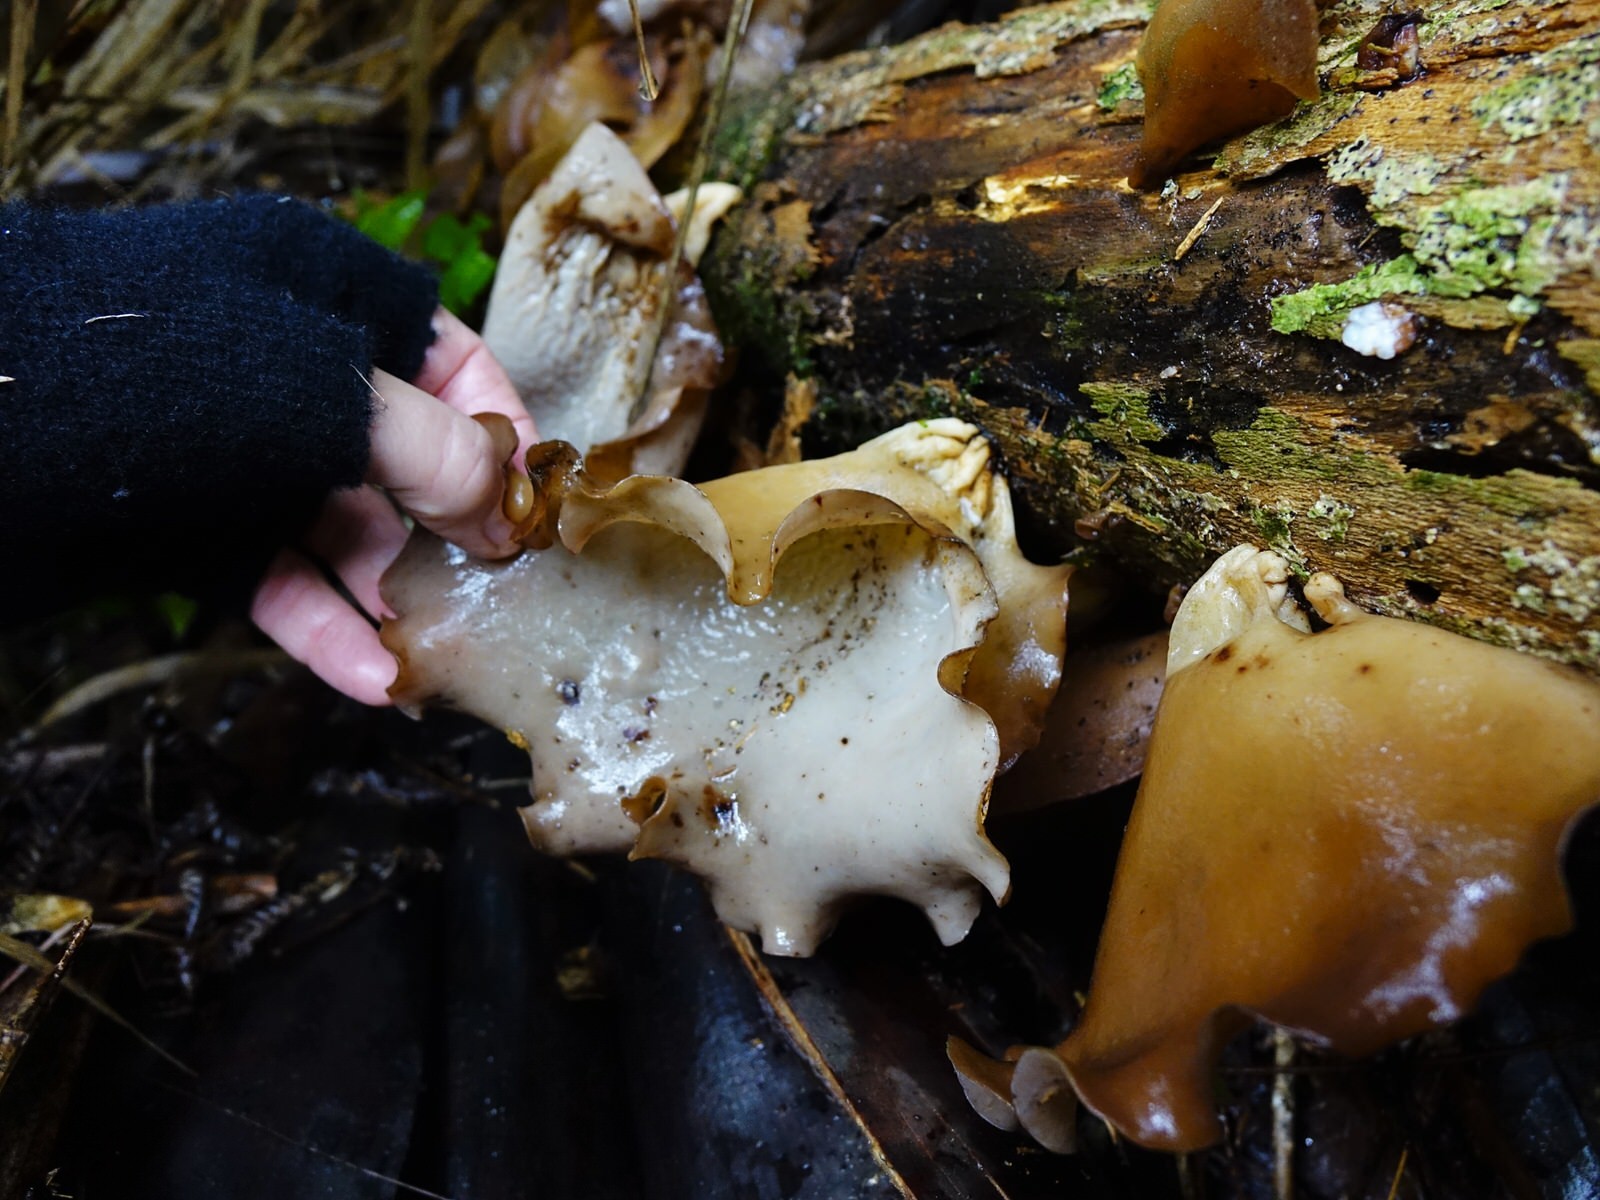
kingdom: Fungi
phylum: Basidiomycota
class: Agaricomycetes
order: Auriculariales
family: Auriculariaceae
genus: Auricularia
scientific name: Auricularia cornea
